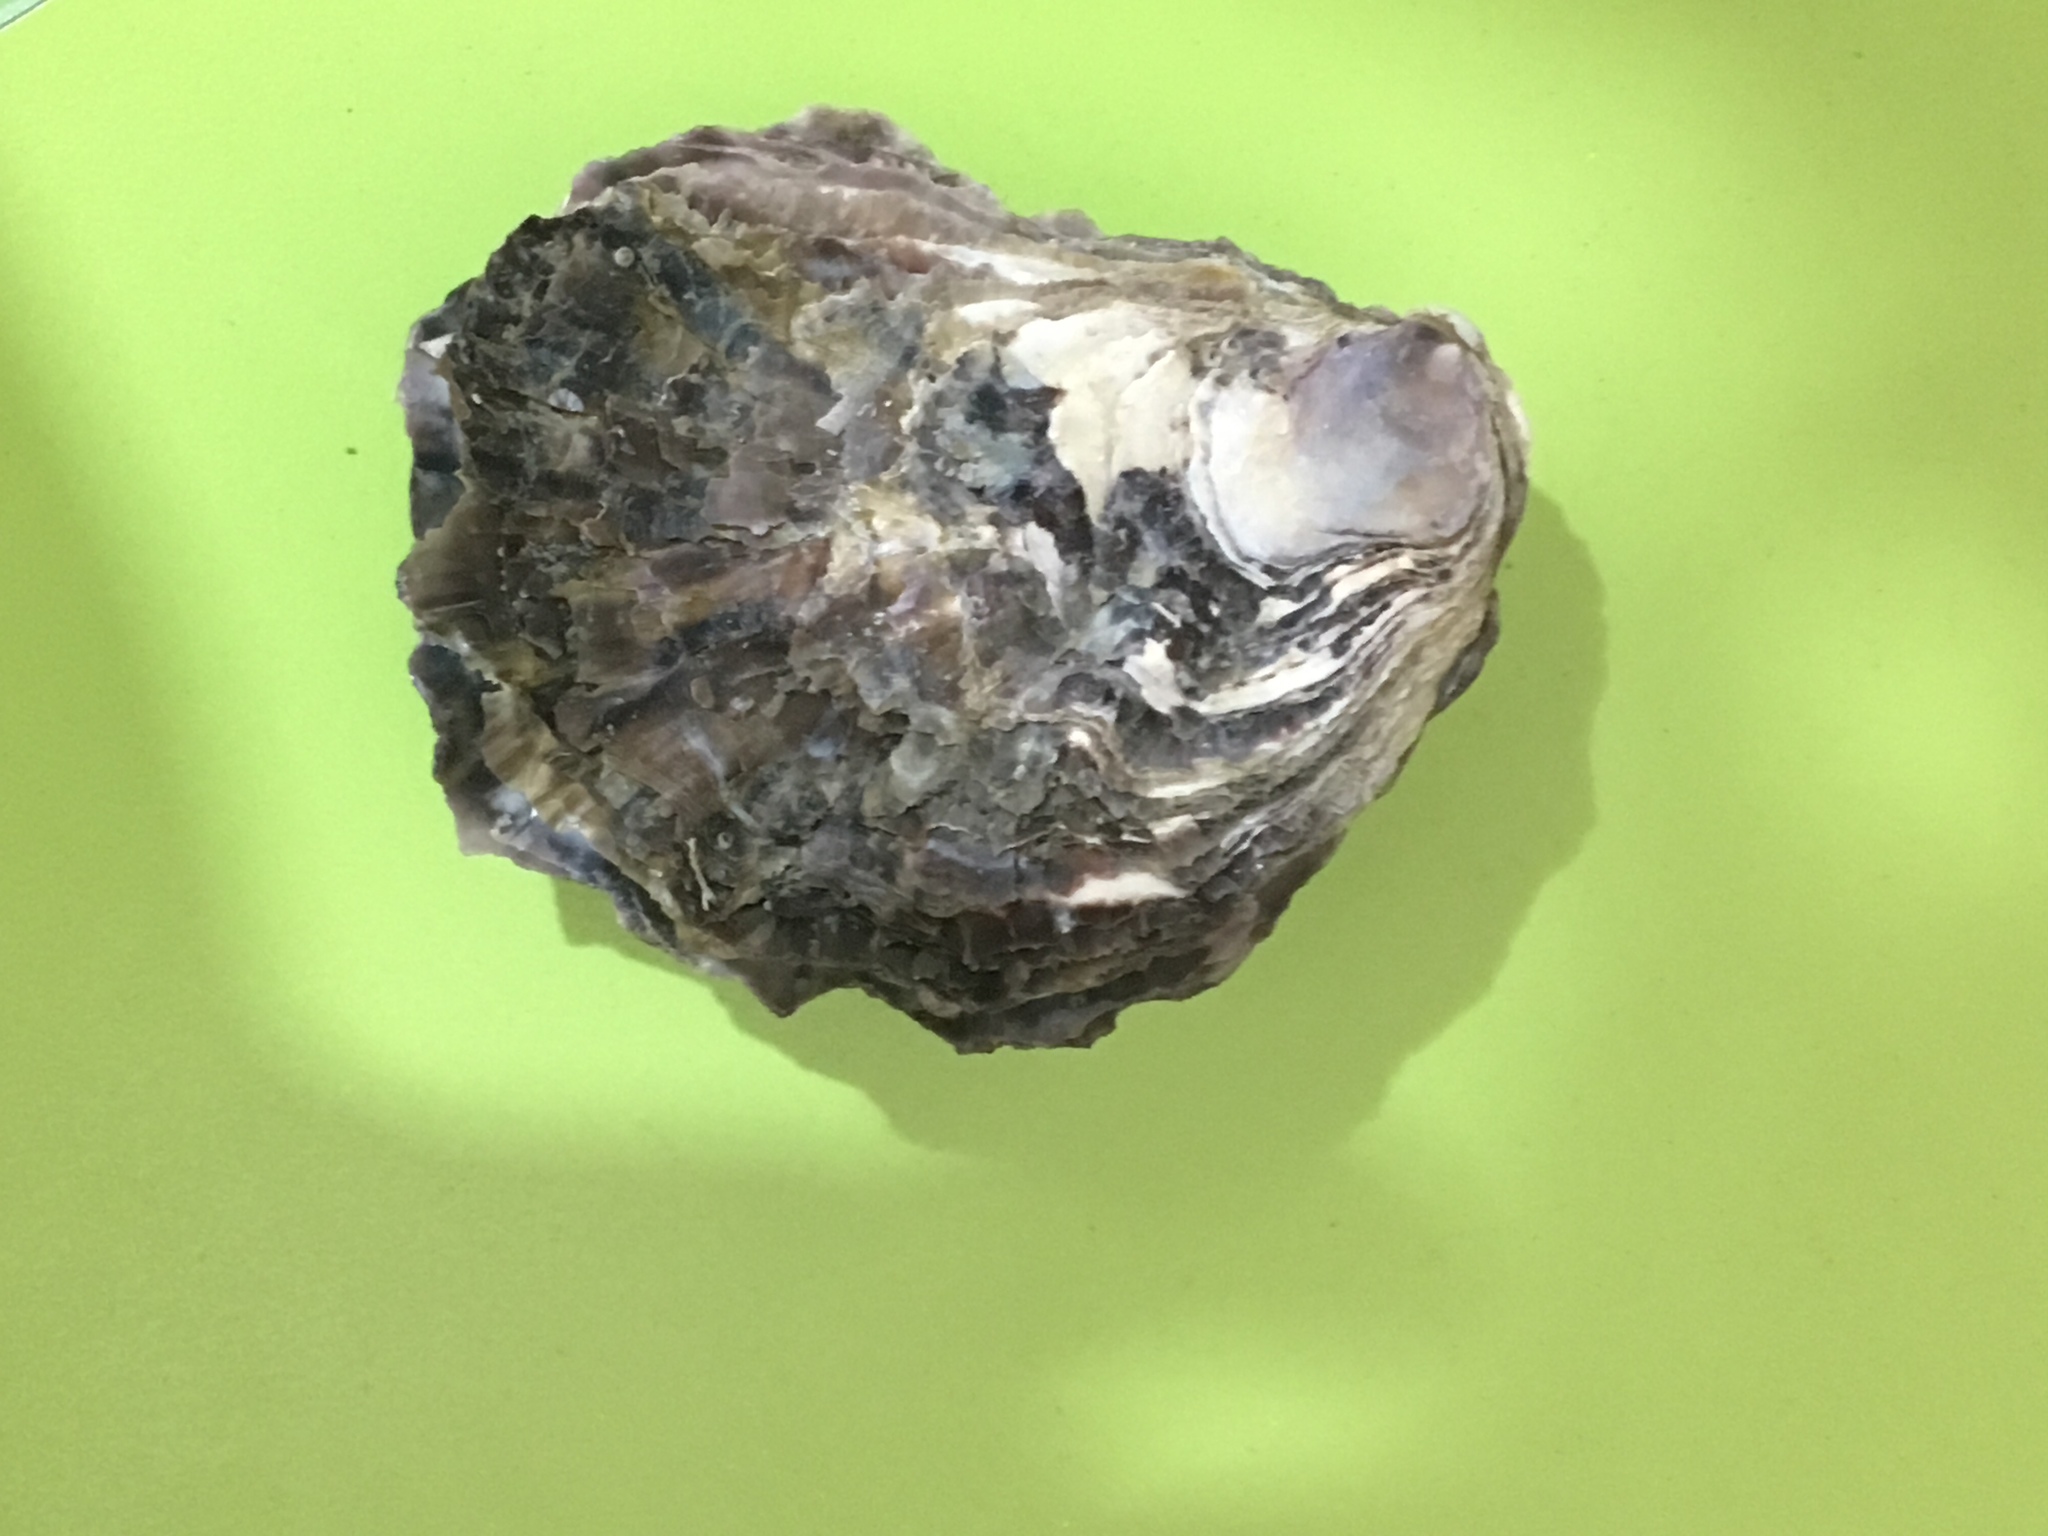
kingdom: Animalia
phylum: Mollusca
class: Bivalvia
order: Ostreida
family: Ostreidae
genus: Saccostrea
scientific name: Saccostrea glomerata
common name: Sydney cupped oyster
